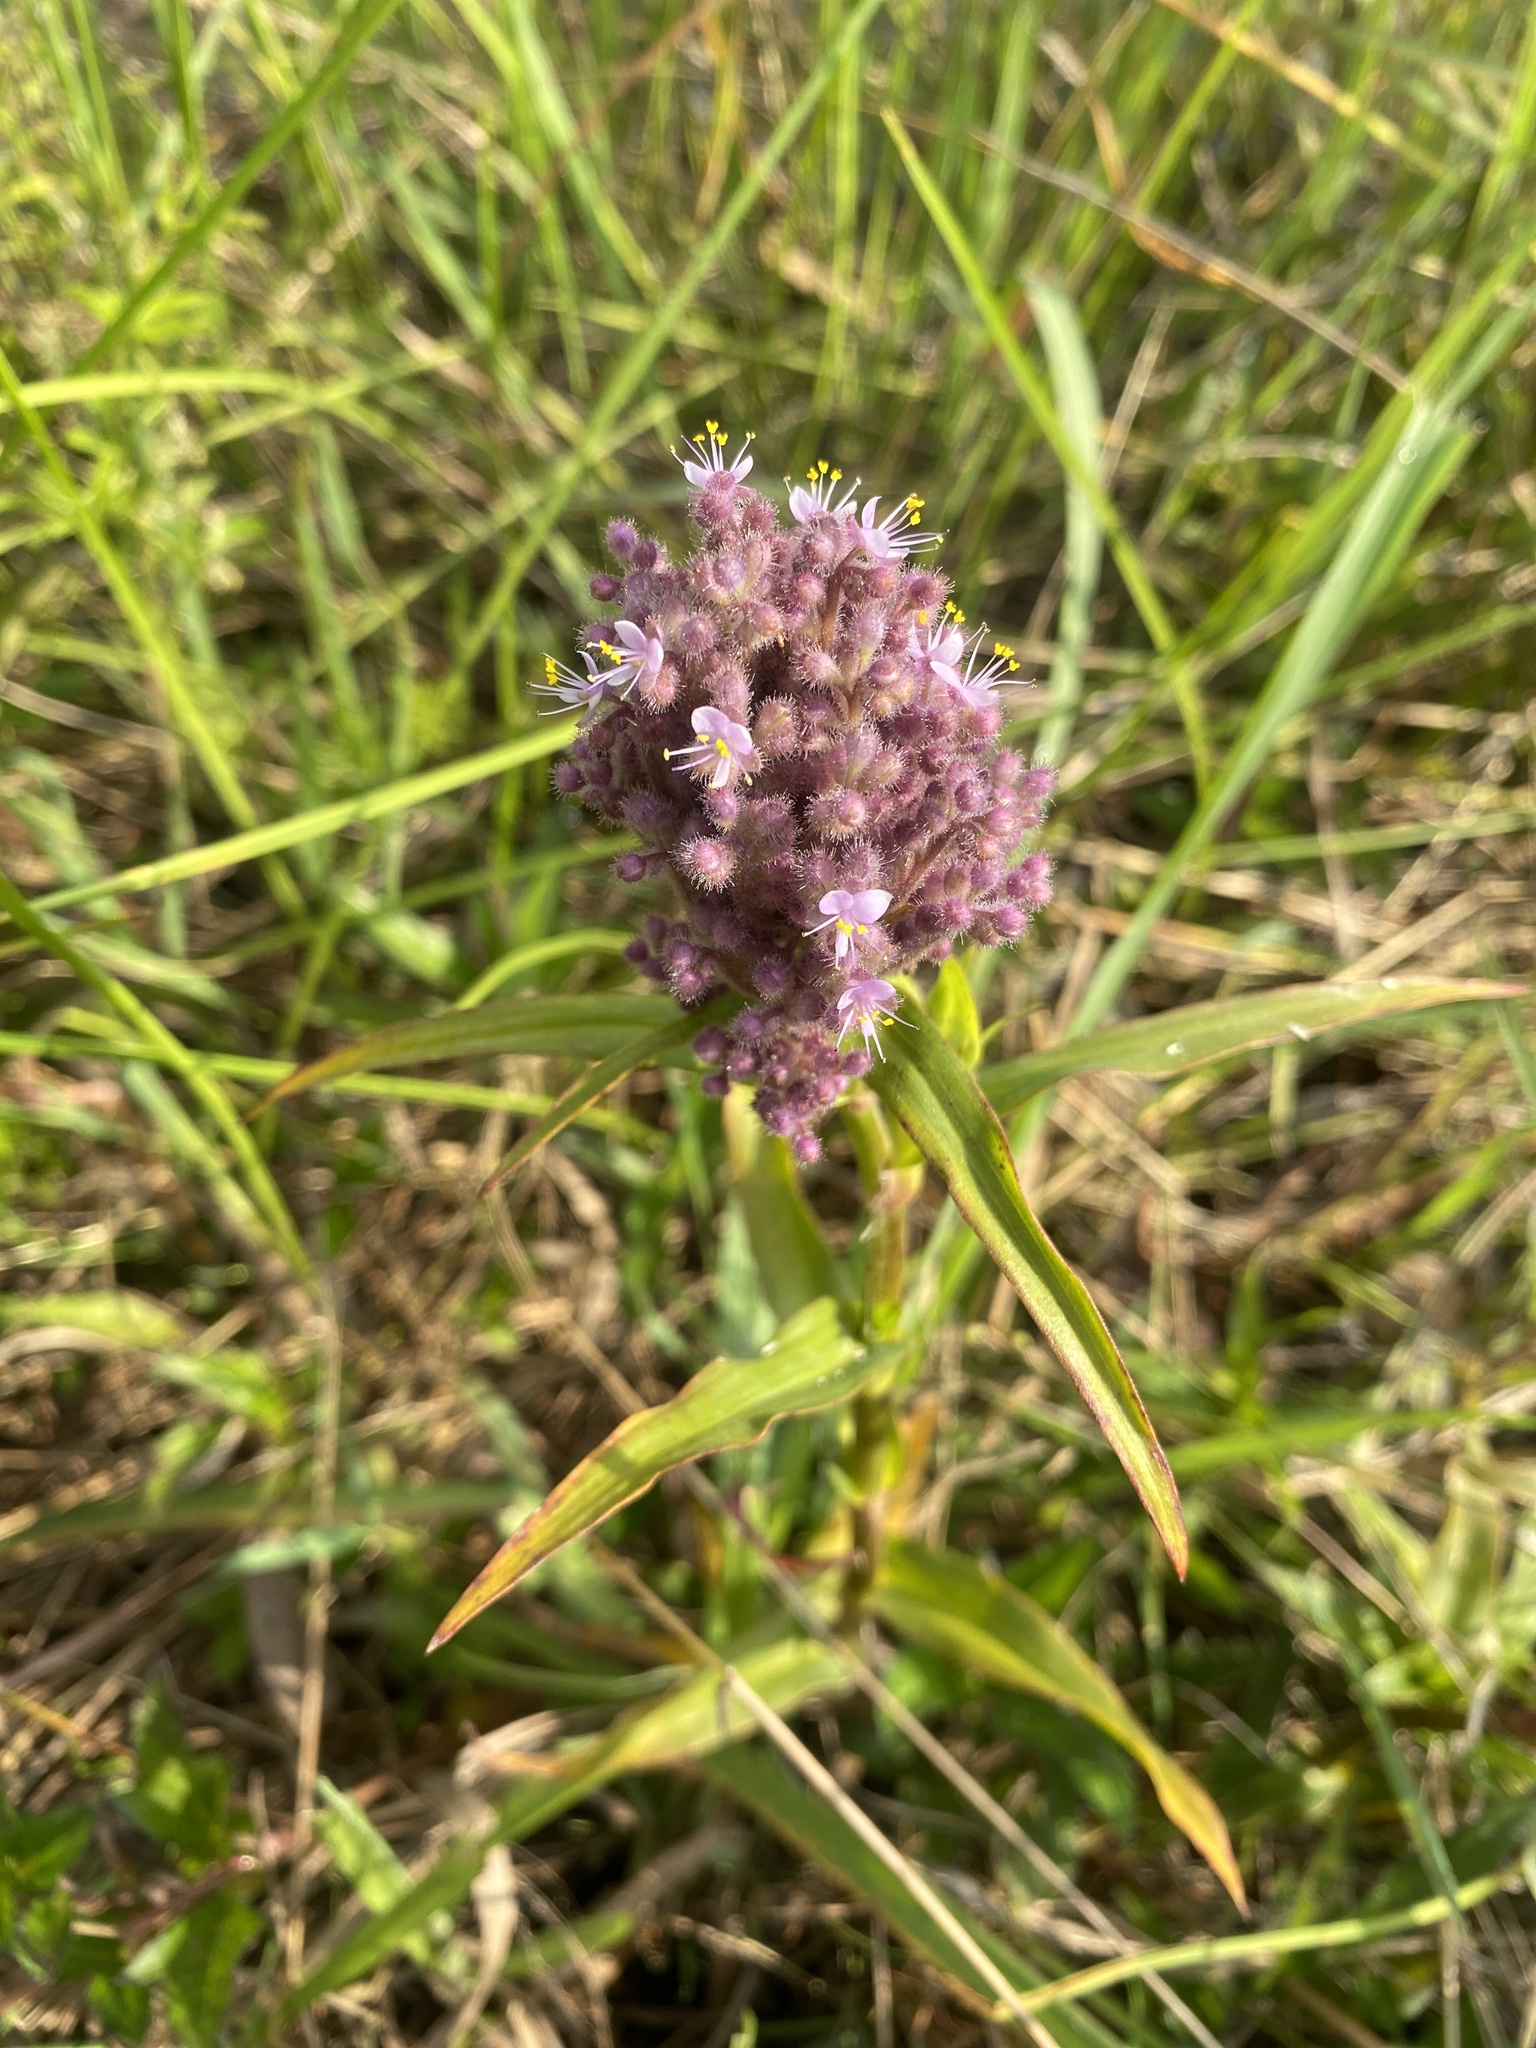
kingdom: Plantae
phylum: Tracheophyta
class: Liliopsida
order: Commelinales
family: Commelinaceae
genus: Floscopa
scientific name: Floscopa glomerata
